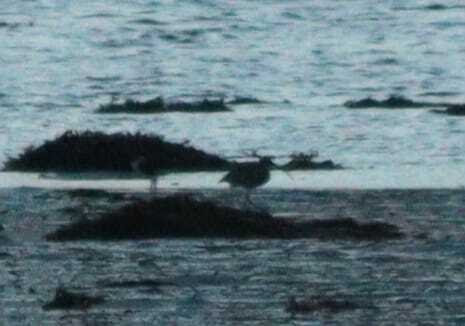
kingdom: Animalia
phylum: Chordata
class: Aves
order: Charadriiformes
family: Scolopacidae
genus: Numenius
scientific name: Numenius arquata
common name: Eurasian curlew
